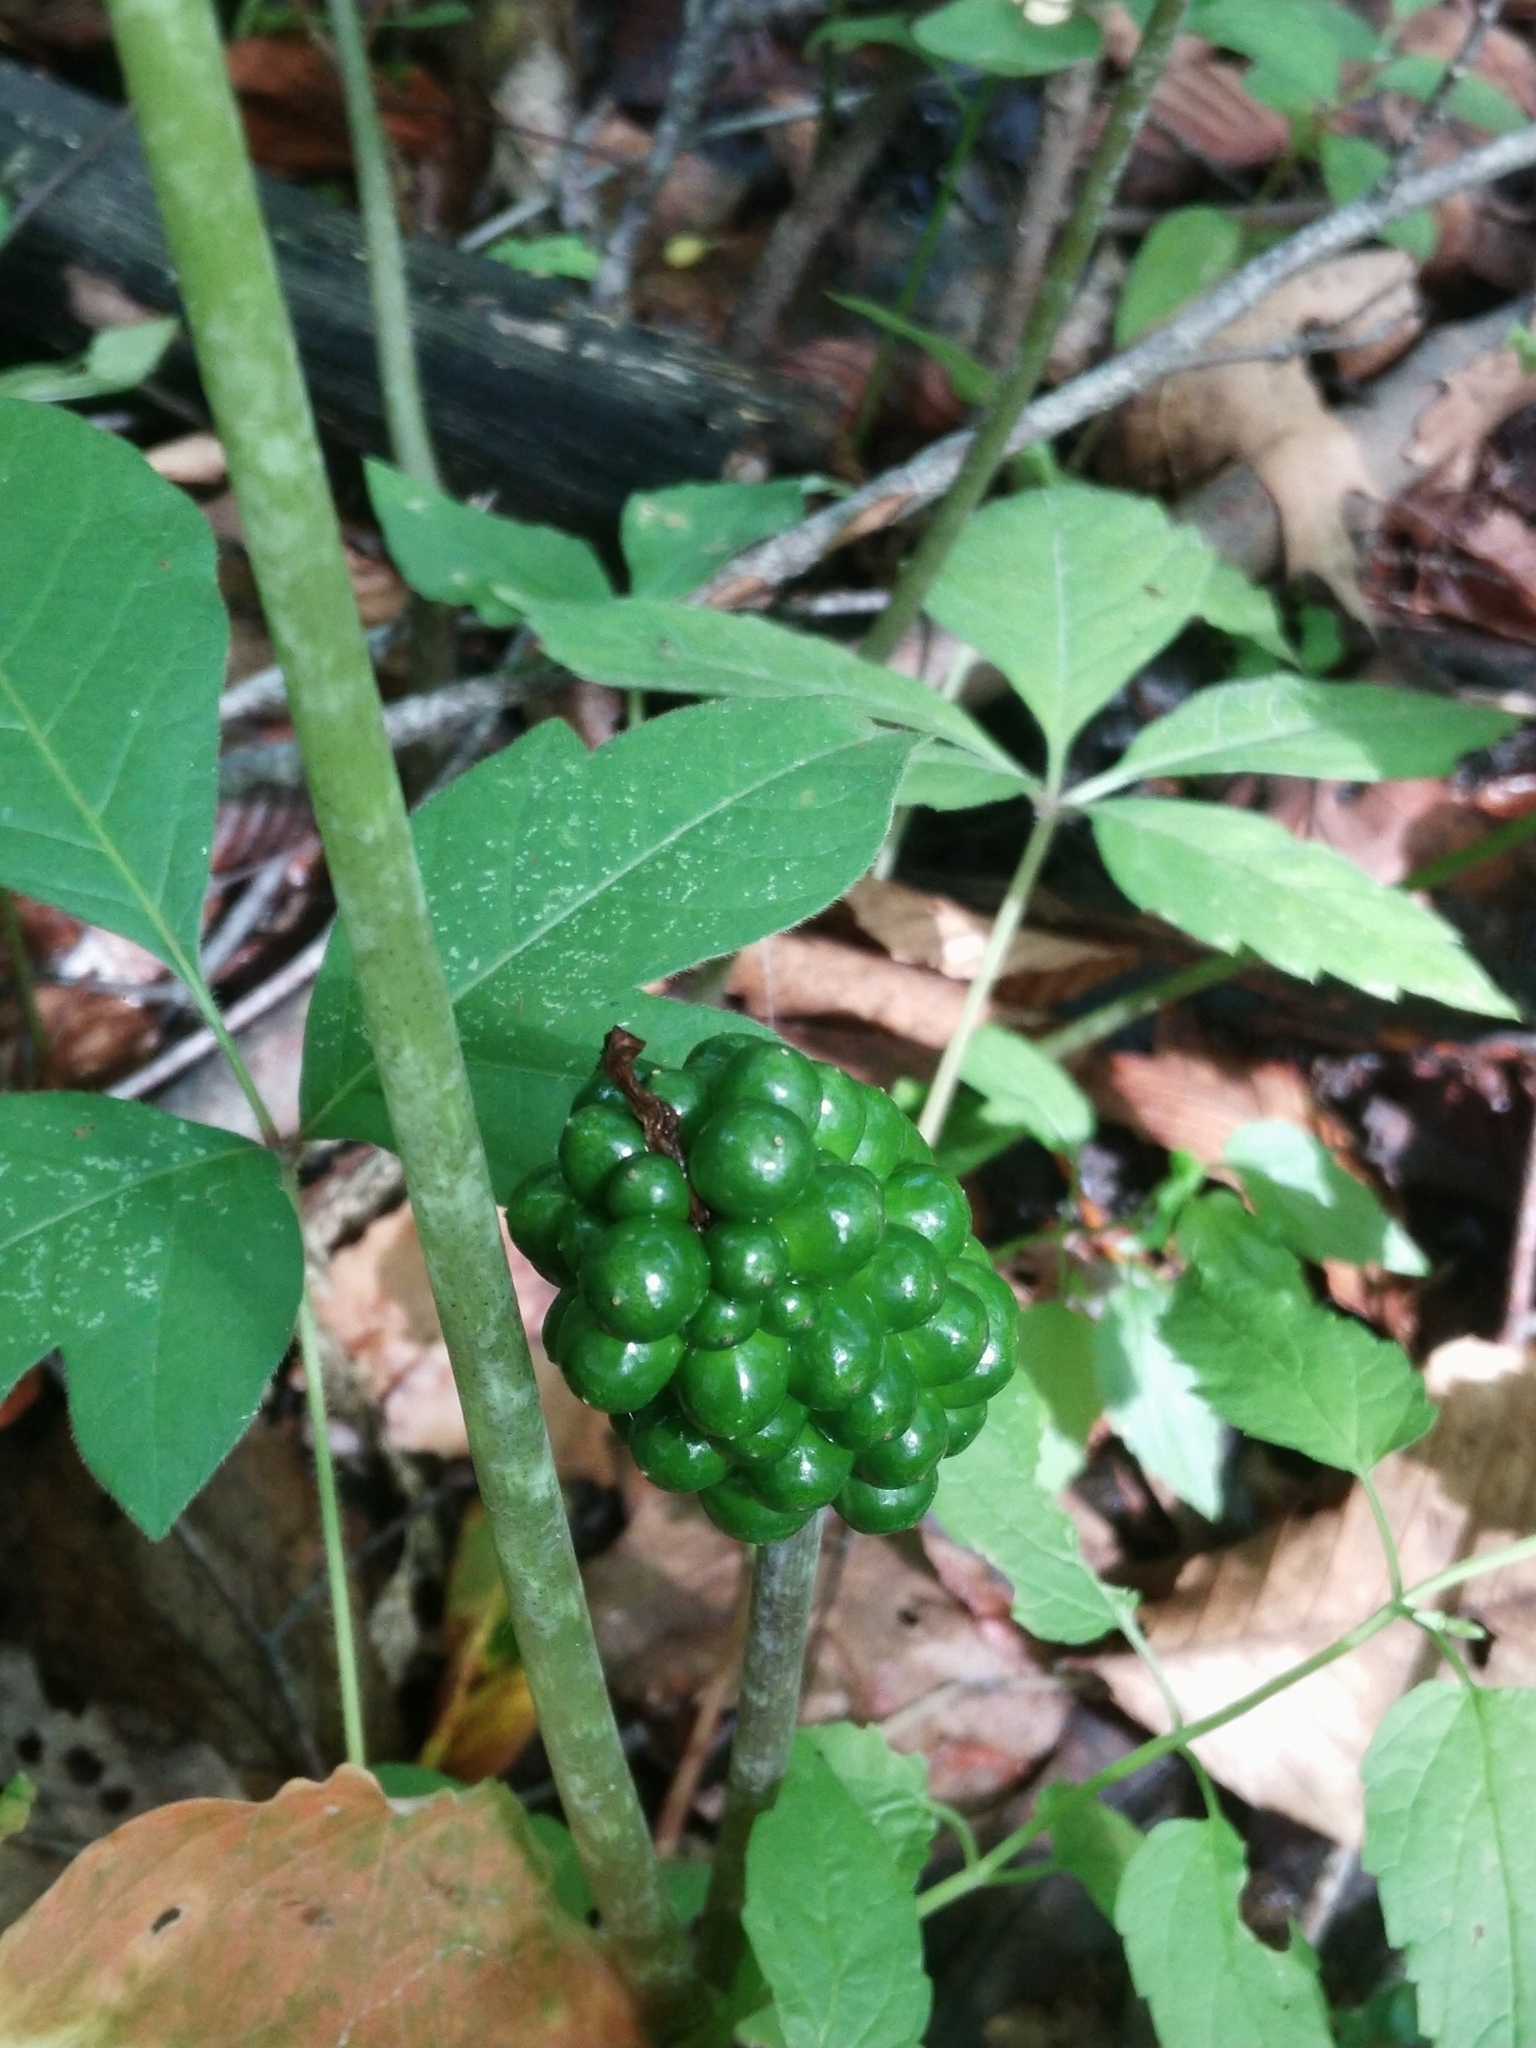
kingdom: Plantae
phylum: Tracheophyta
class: Liliopsida
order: Alismatales
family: Araceae
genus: Arisaema
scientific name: Arisaema triphyllum
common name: Jack-in-the-pulpit
